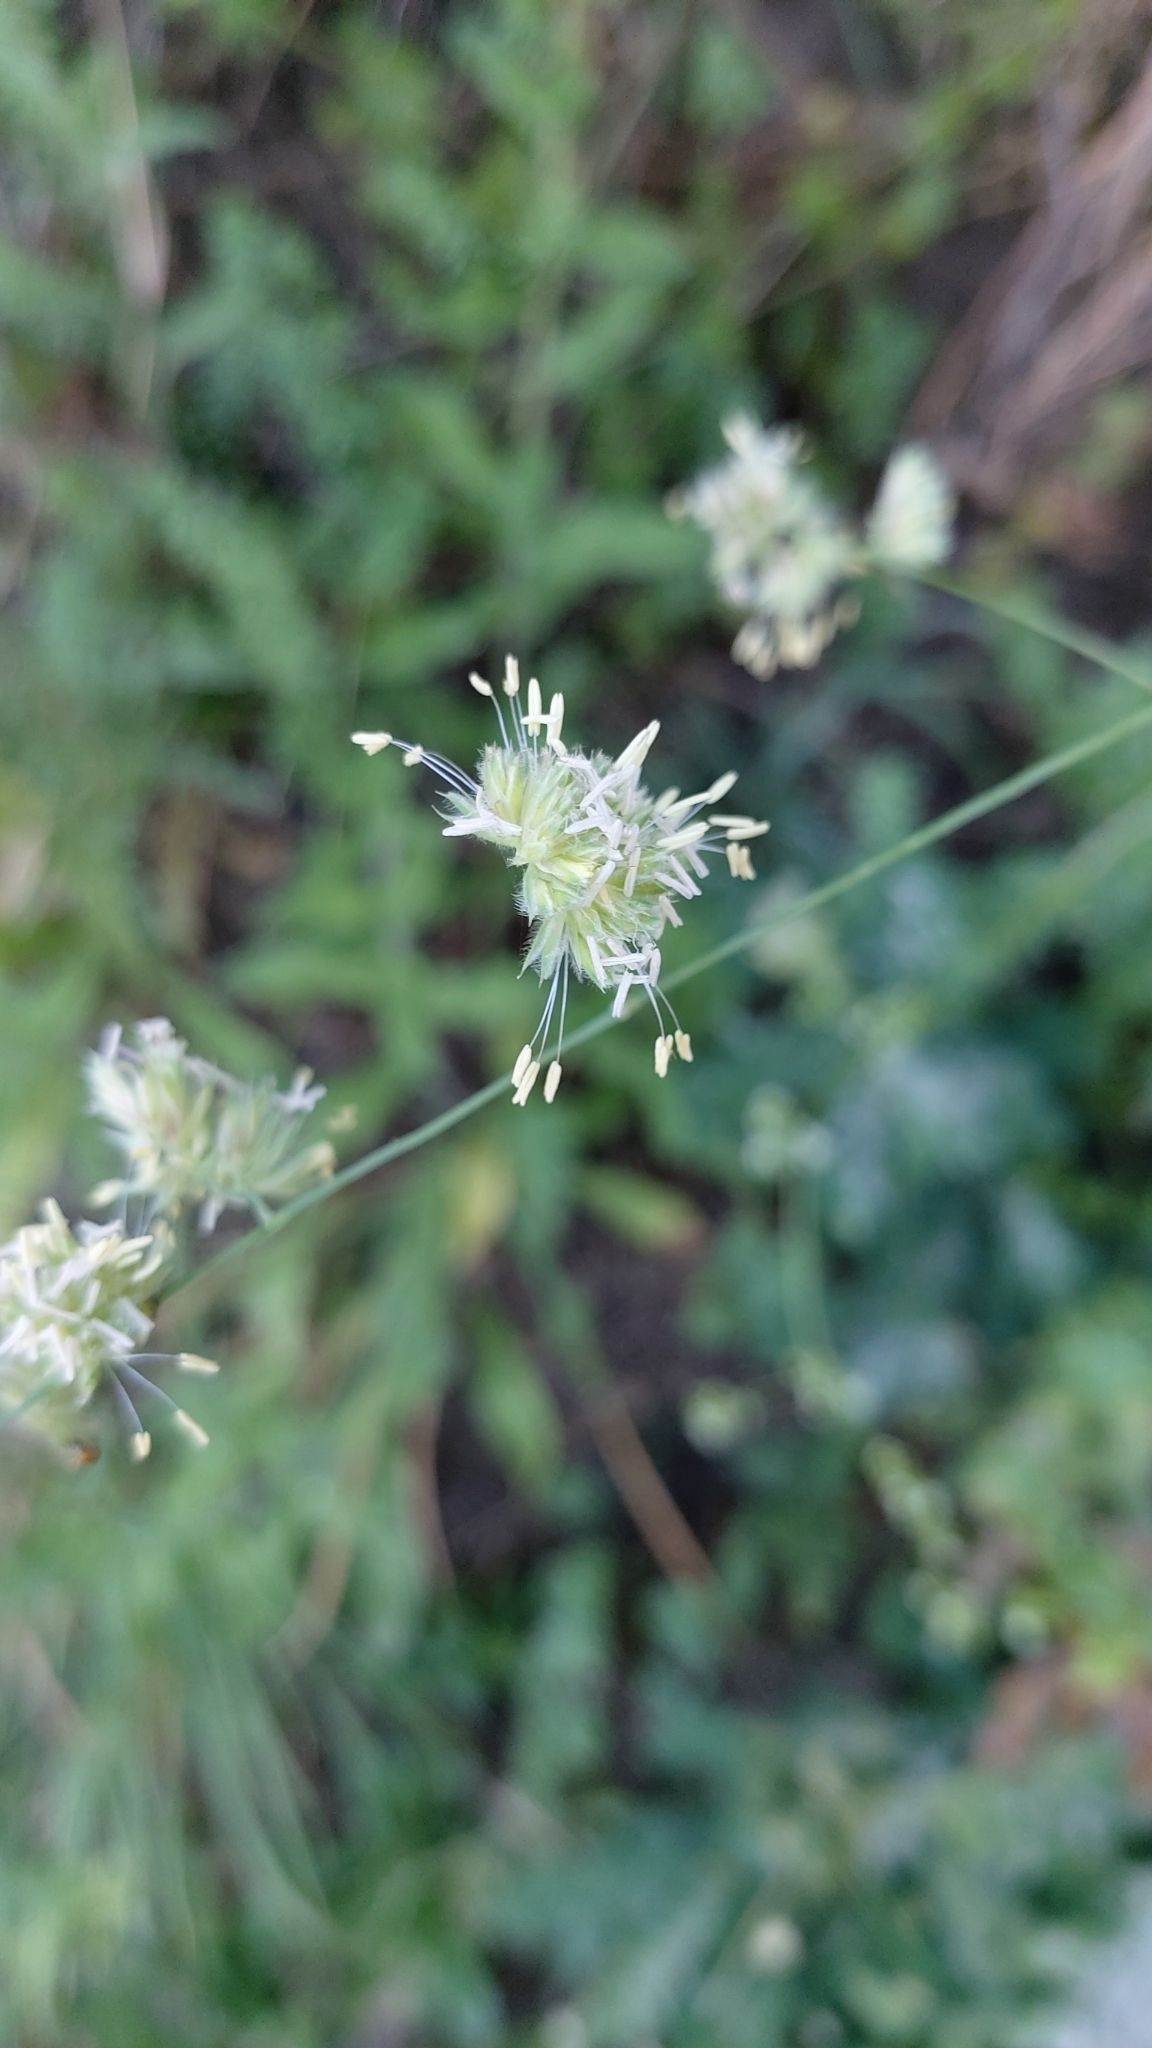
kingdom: Plantae
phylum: Tracheophyta
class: Liliopsida
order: Poales
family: Poaceae
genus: Dactylis
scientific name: Dactylis glomerata
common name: Orchardgrass
